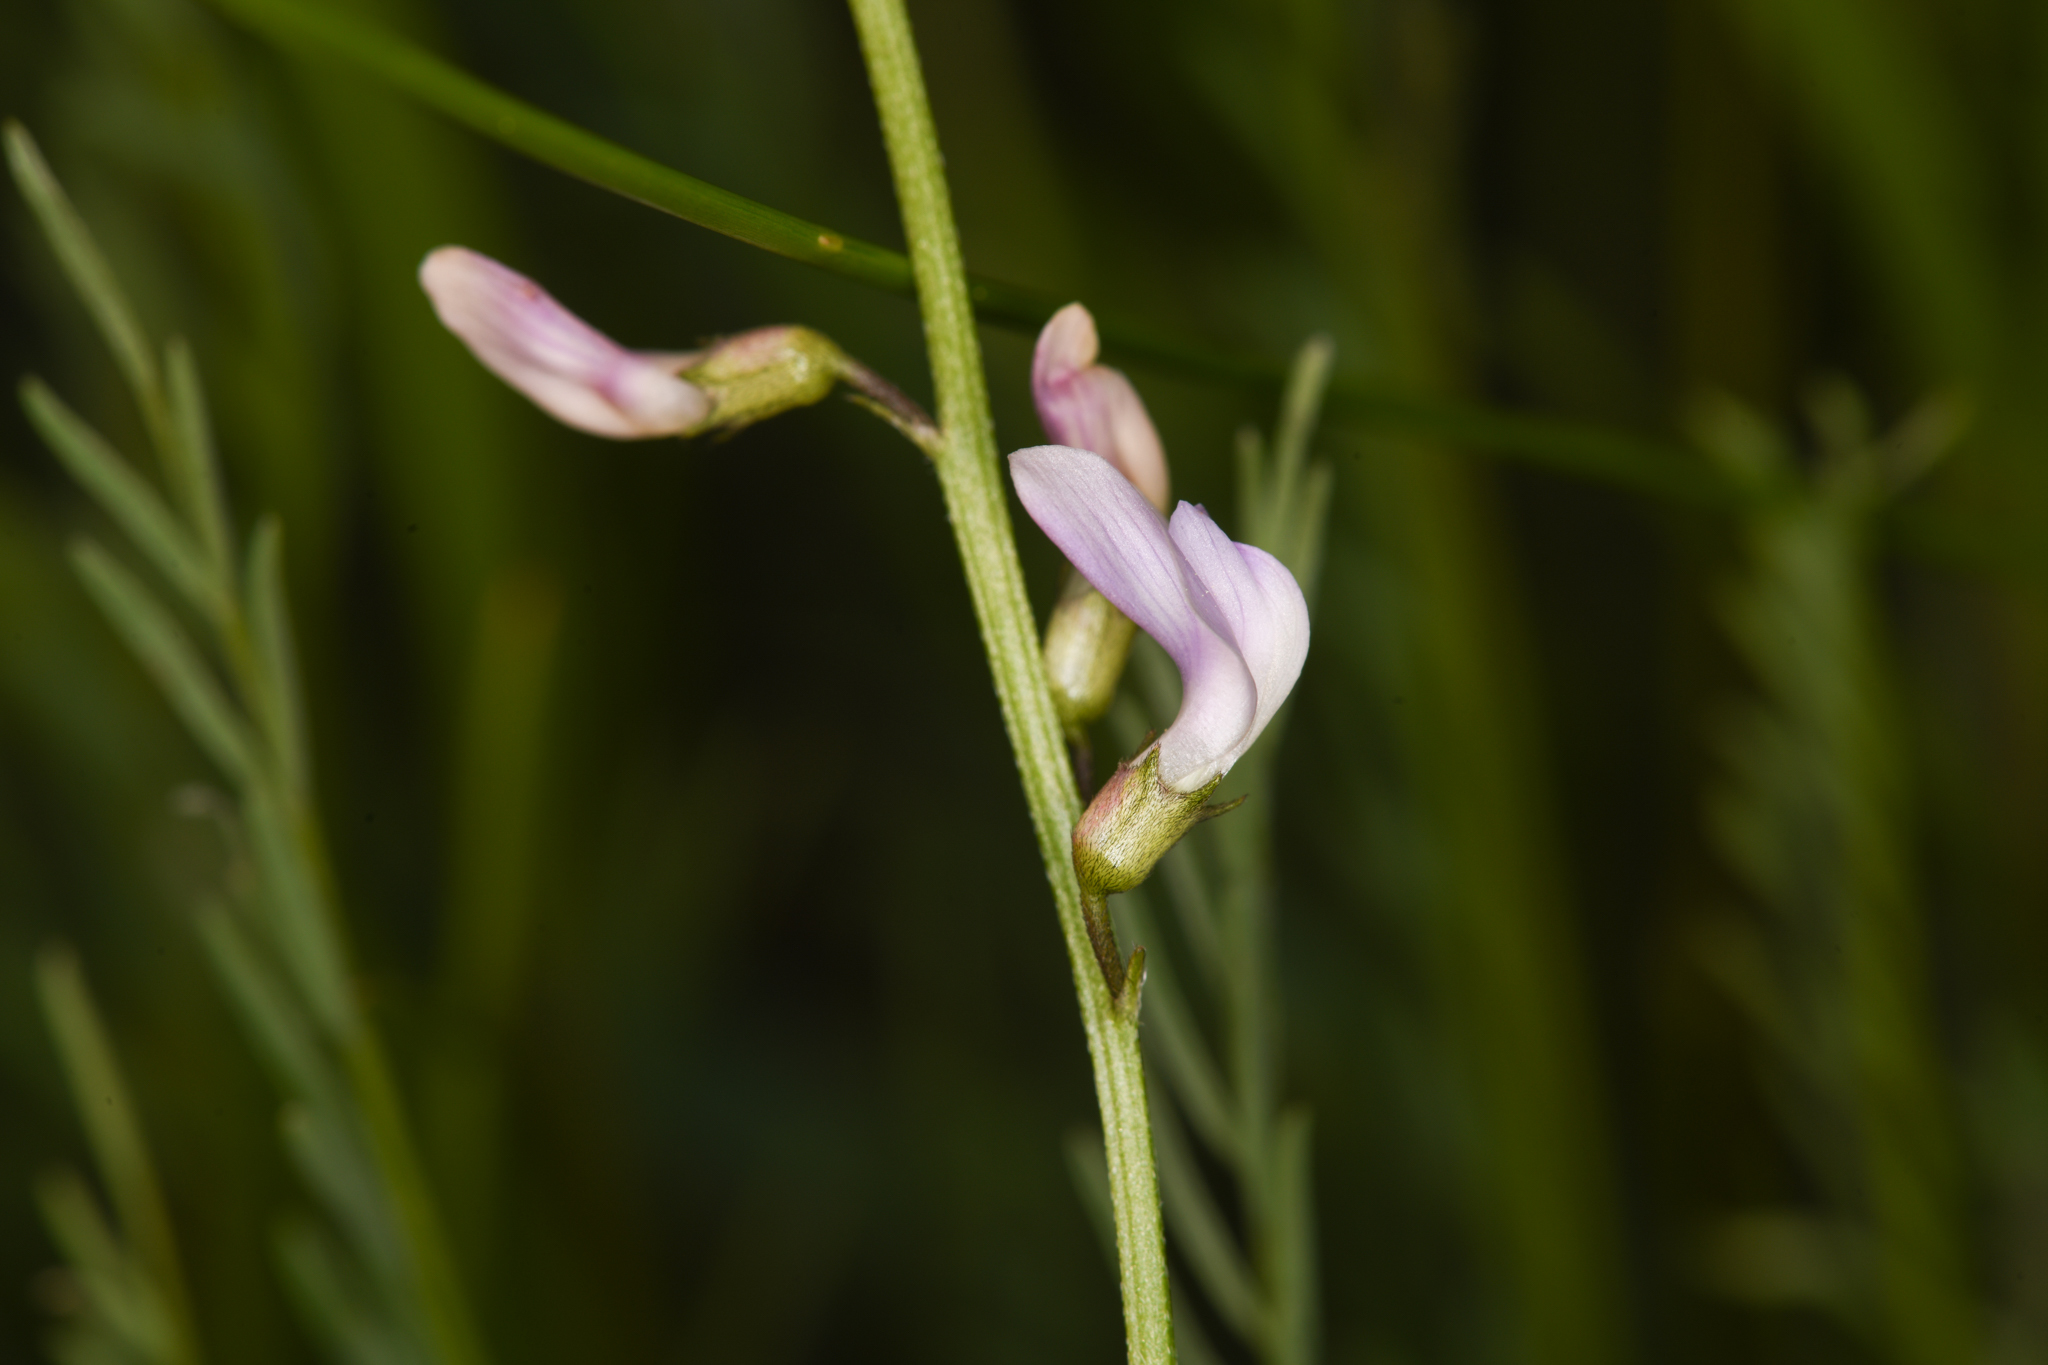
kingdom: Plantae
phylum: Tracheophyta
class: Magnoliopsida
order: Fabales
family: Fabaceae
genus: Astragalus
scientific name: Astragalus miser
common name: Timber milkvetch
